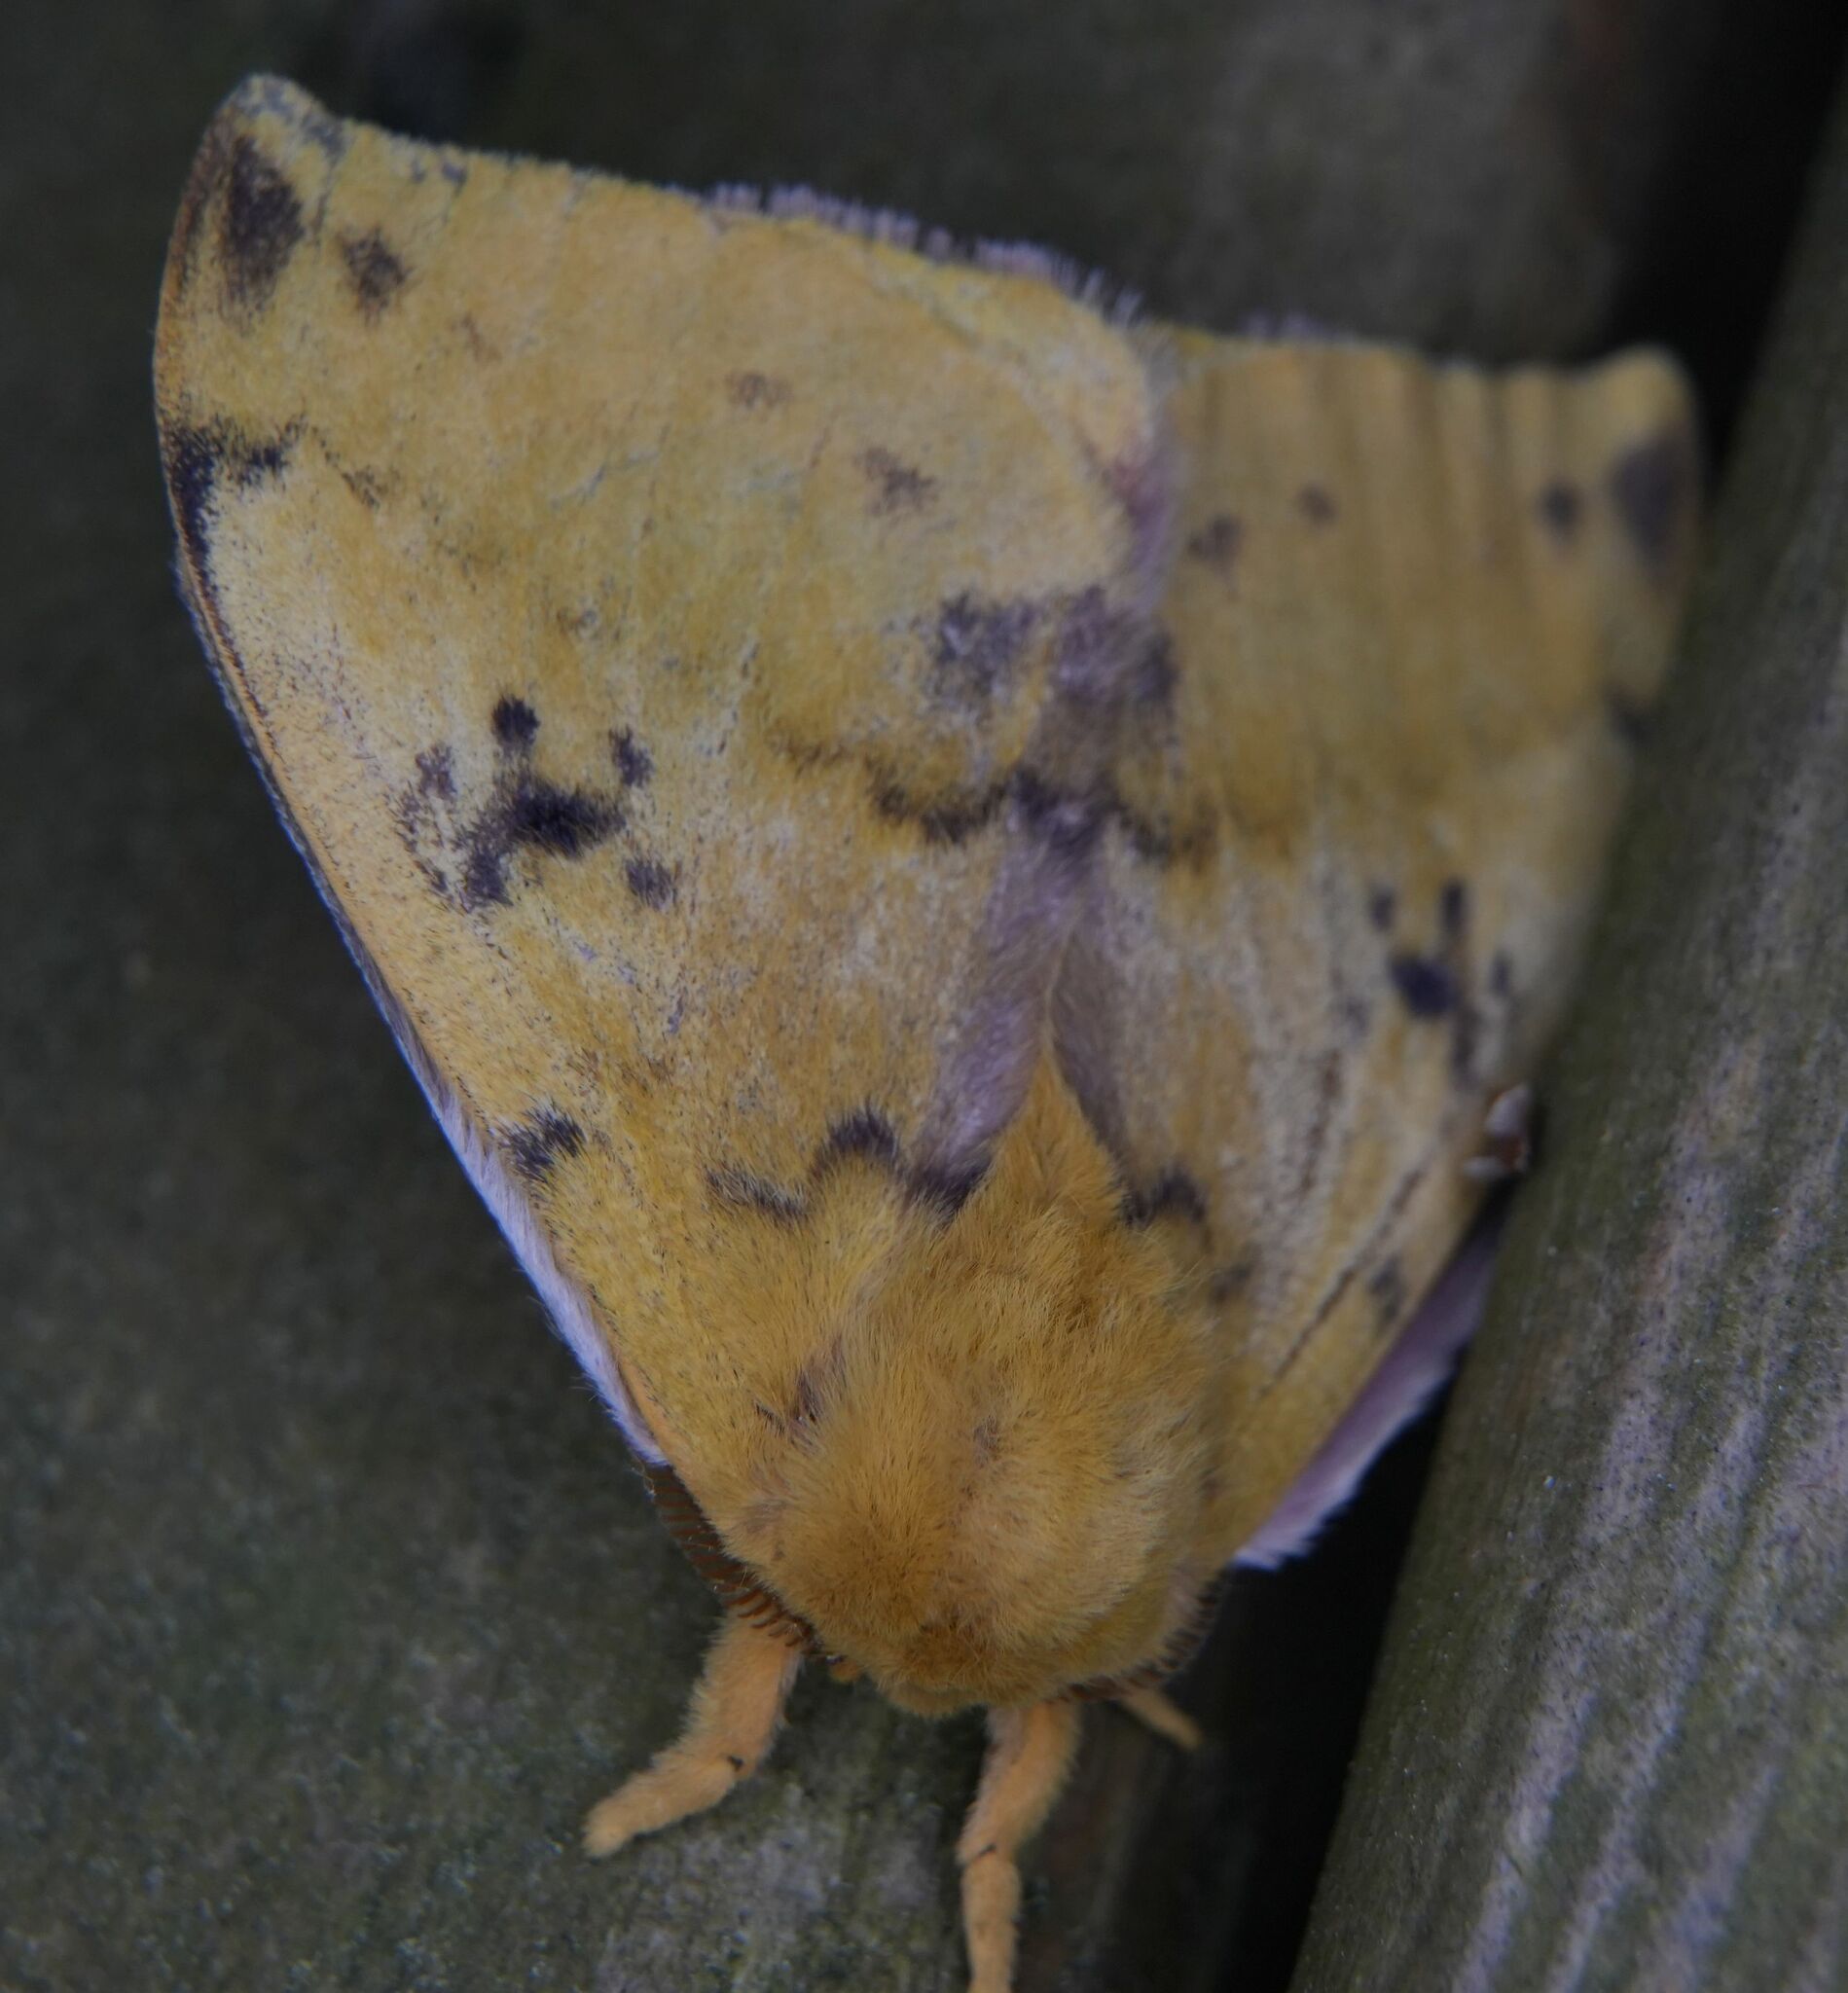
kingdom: Animalia
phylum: Arthropoda
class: Insecta
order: Lepidoptera
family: Saturniidae
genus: Automeris
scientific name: Automeris io
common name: Io moth
